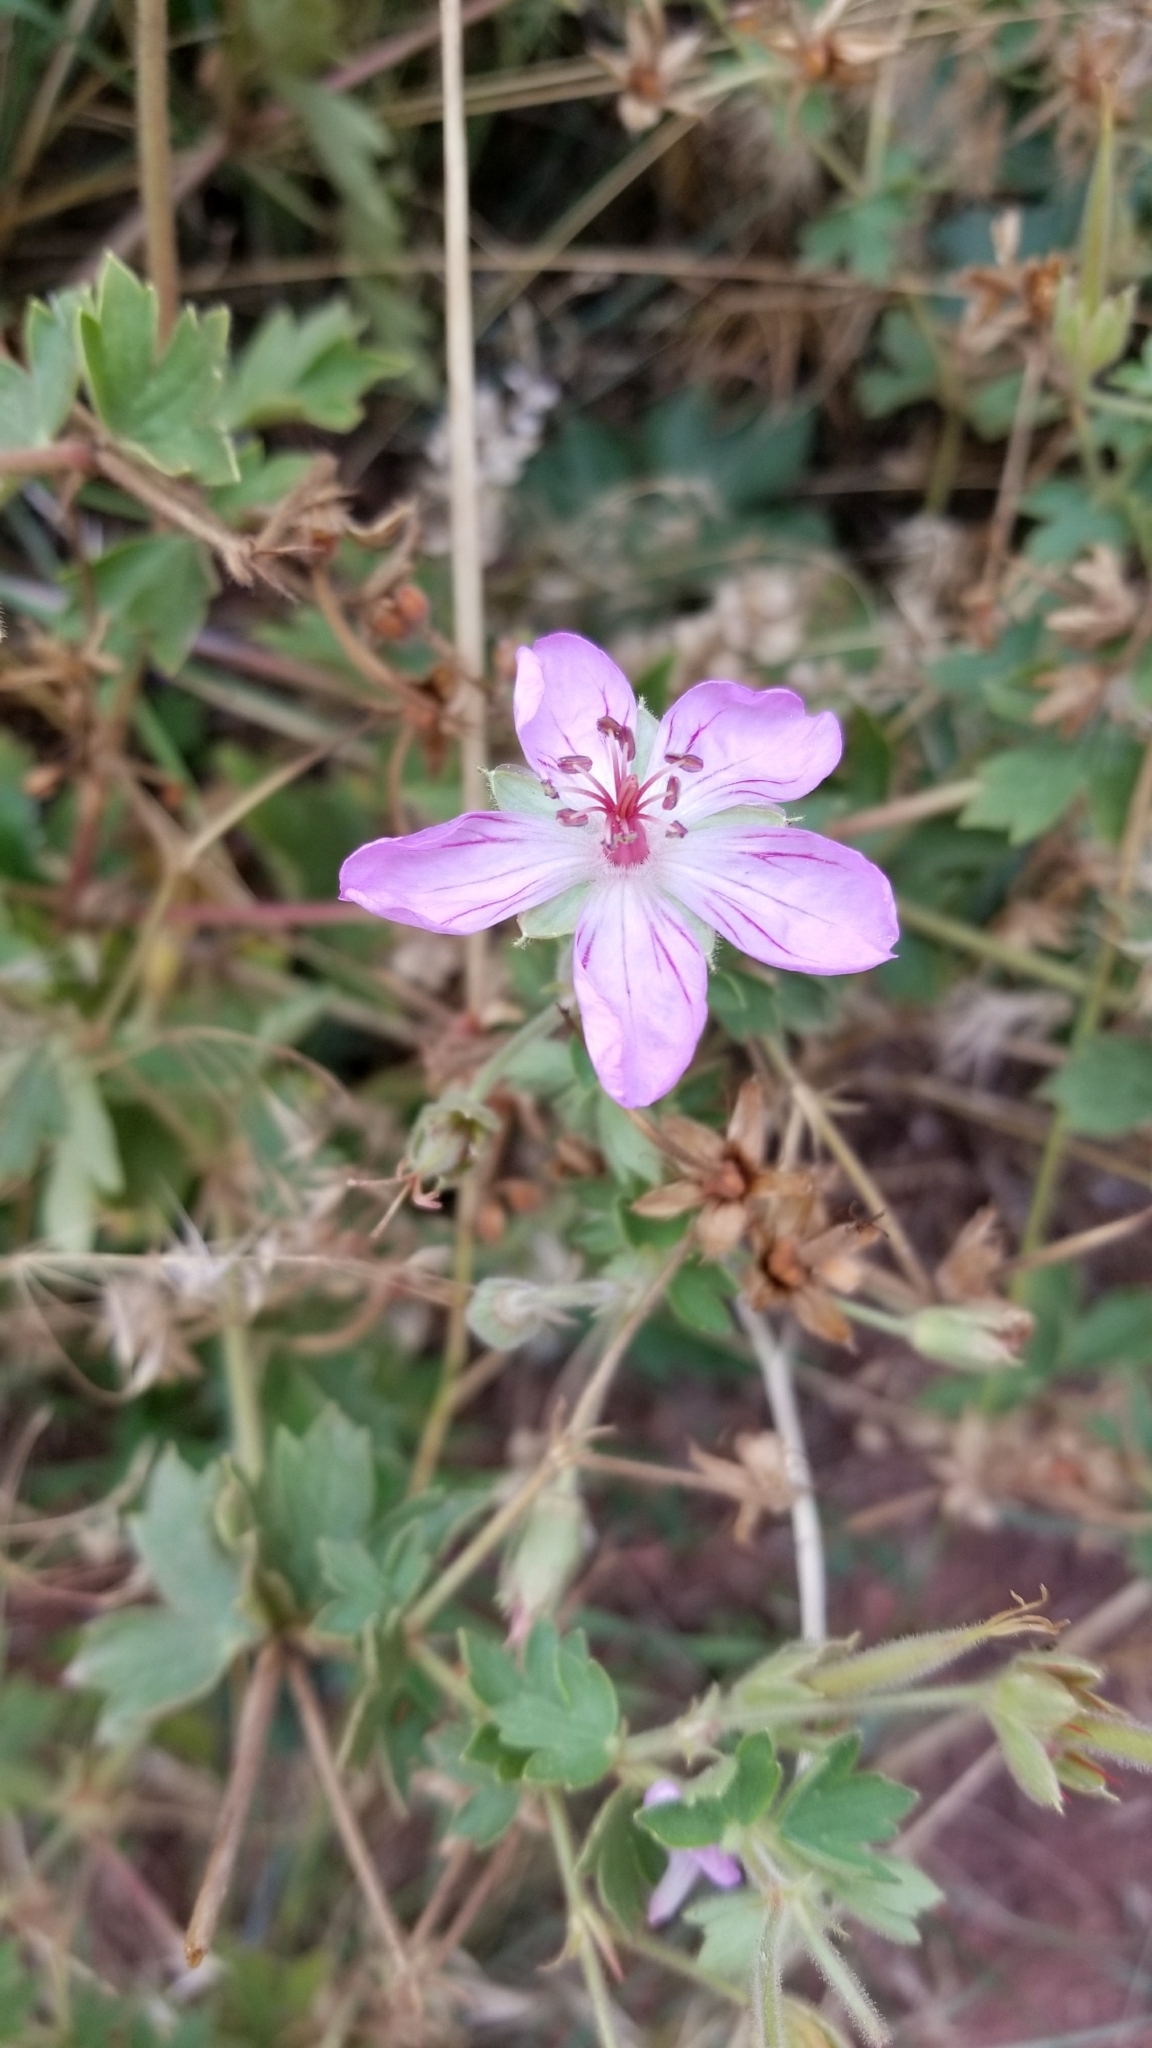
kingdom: Plantae
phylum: Tracheophyta
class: Magnoliopsida
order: Geraniales
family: Geraniaceae
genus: Geranium
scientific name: Geranium caespitosum
